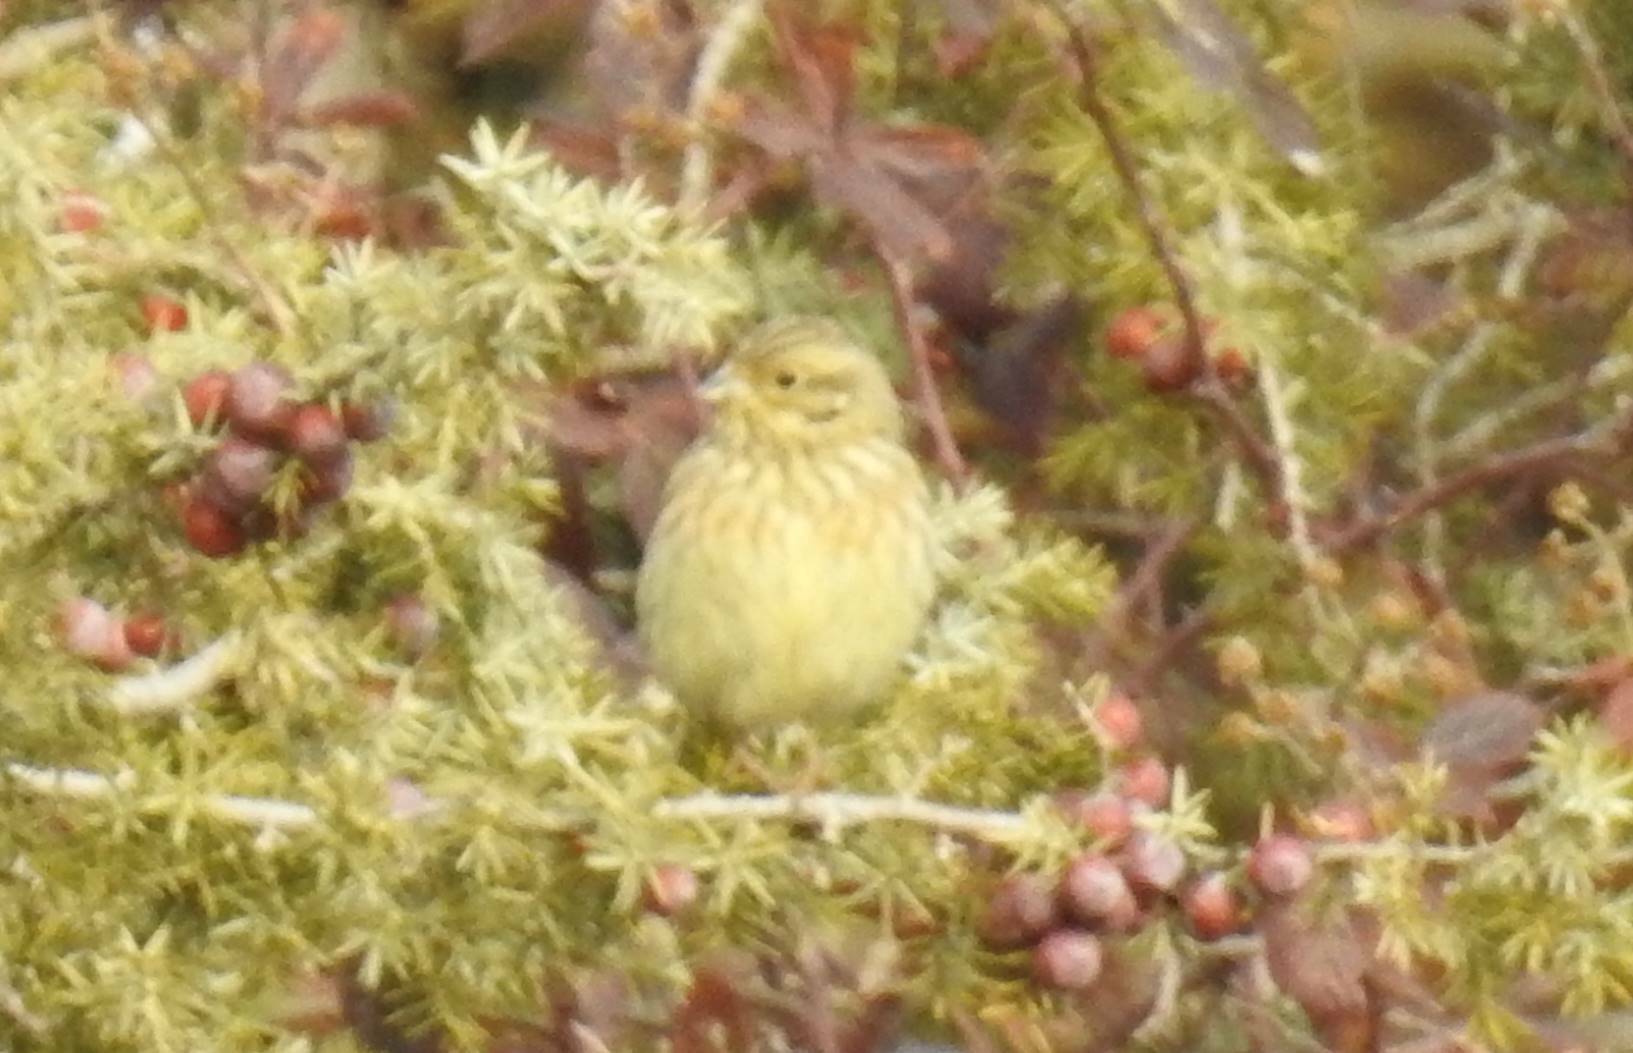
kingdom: Animalia
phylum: Chordata
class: Aves
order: Passeriformes
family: Emberizidae
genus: Emberiza
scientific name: Emberiza cirlus
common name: Cirl bunting
